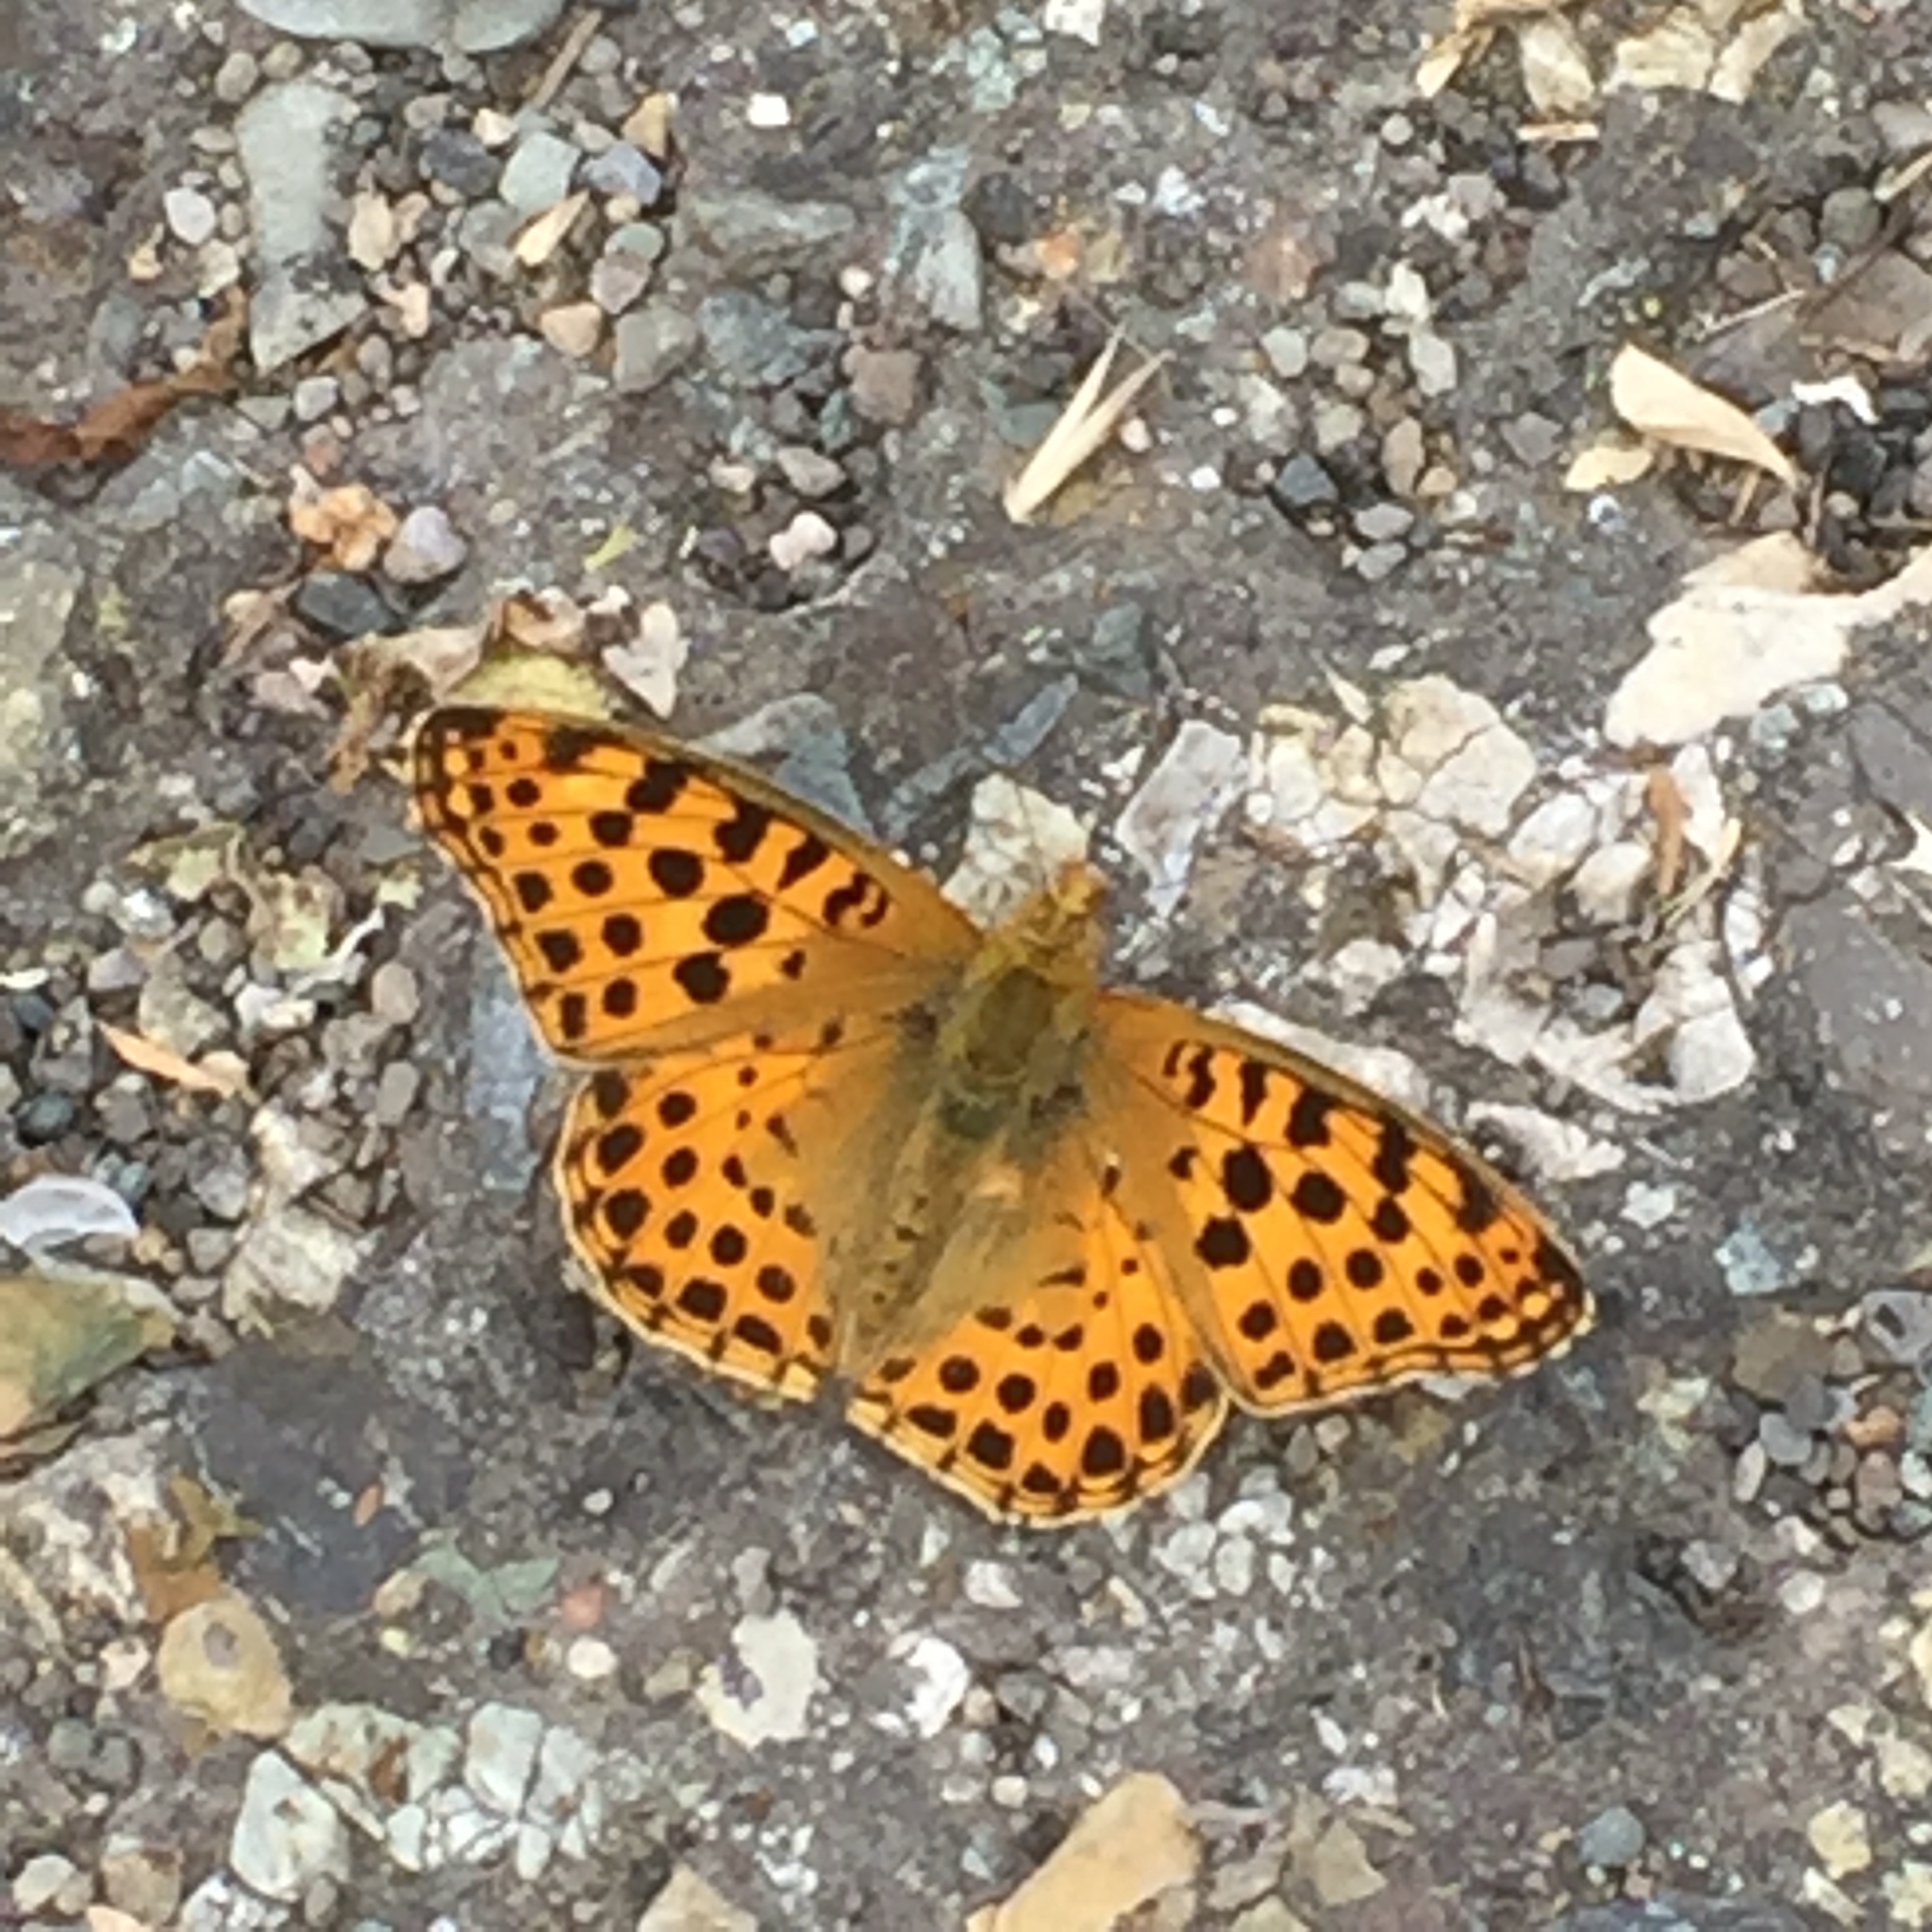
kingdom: Animalia
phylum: Arthropoda
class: Insecta
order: Lepidoptera
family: Nymphalidae
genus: Issoria
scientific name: Issoria lathonia
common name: Queen of spain fritillary
